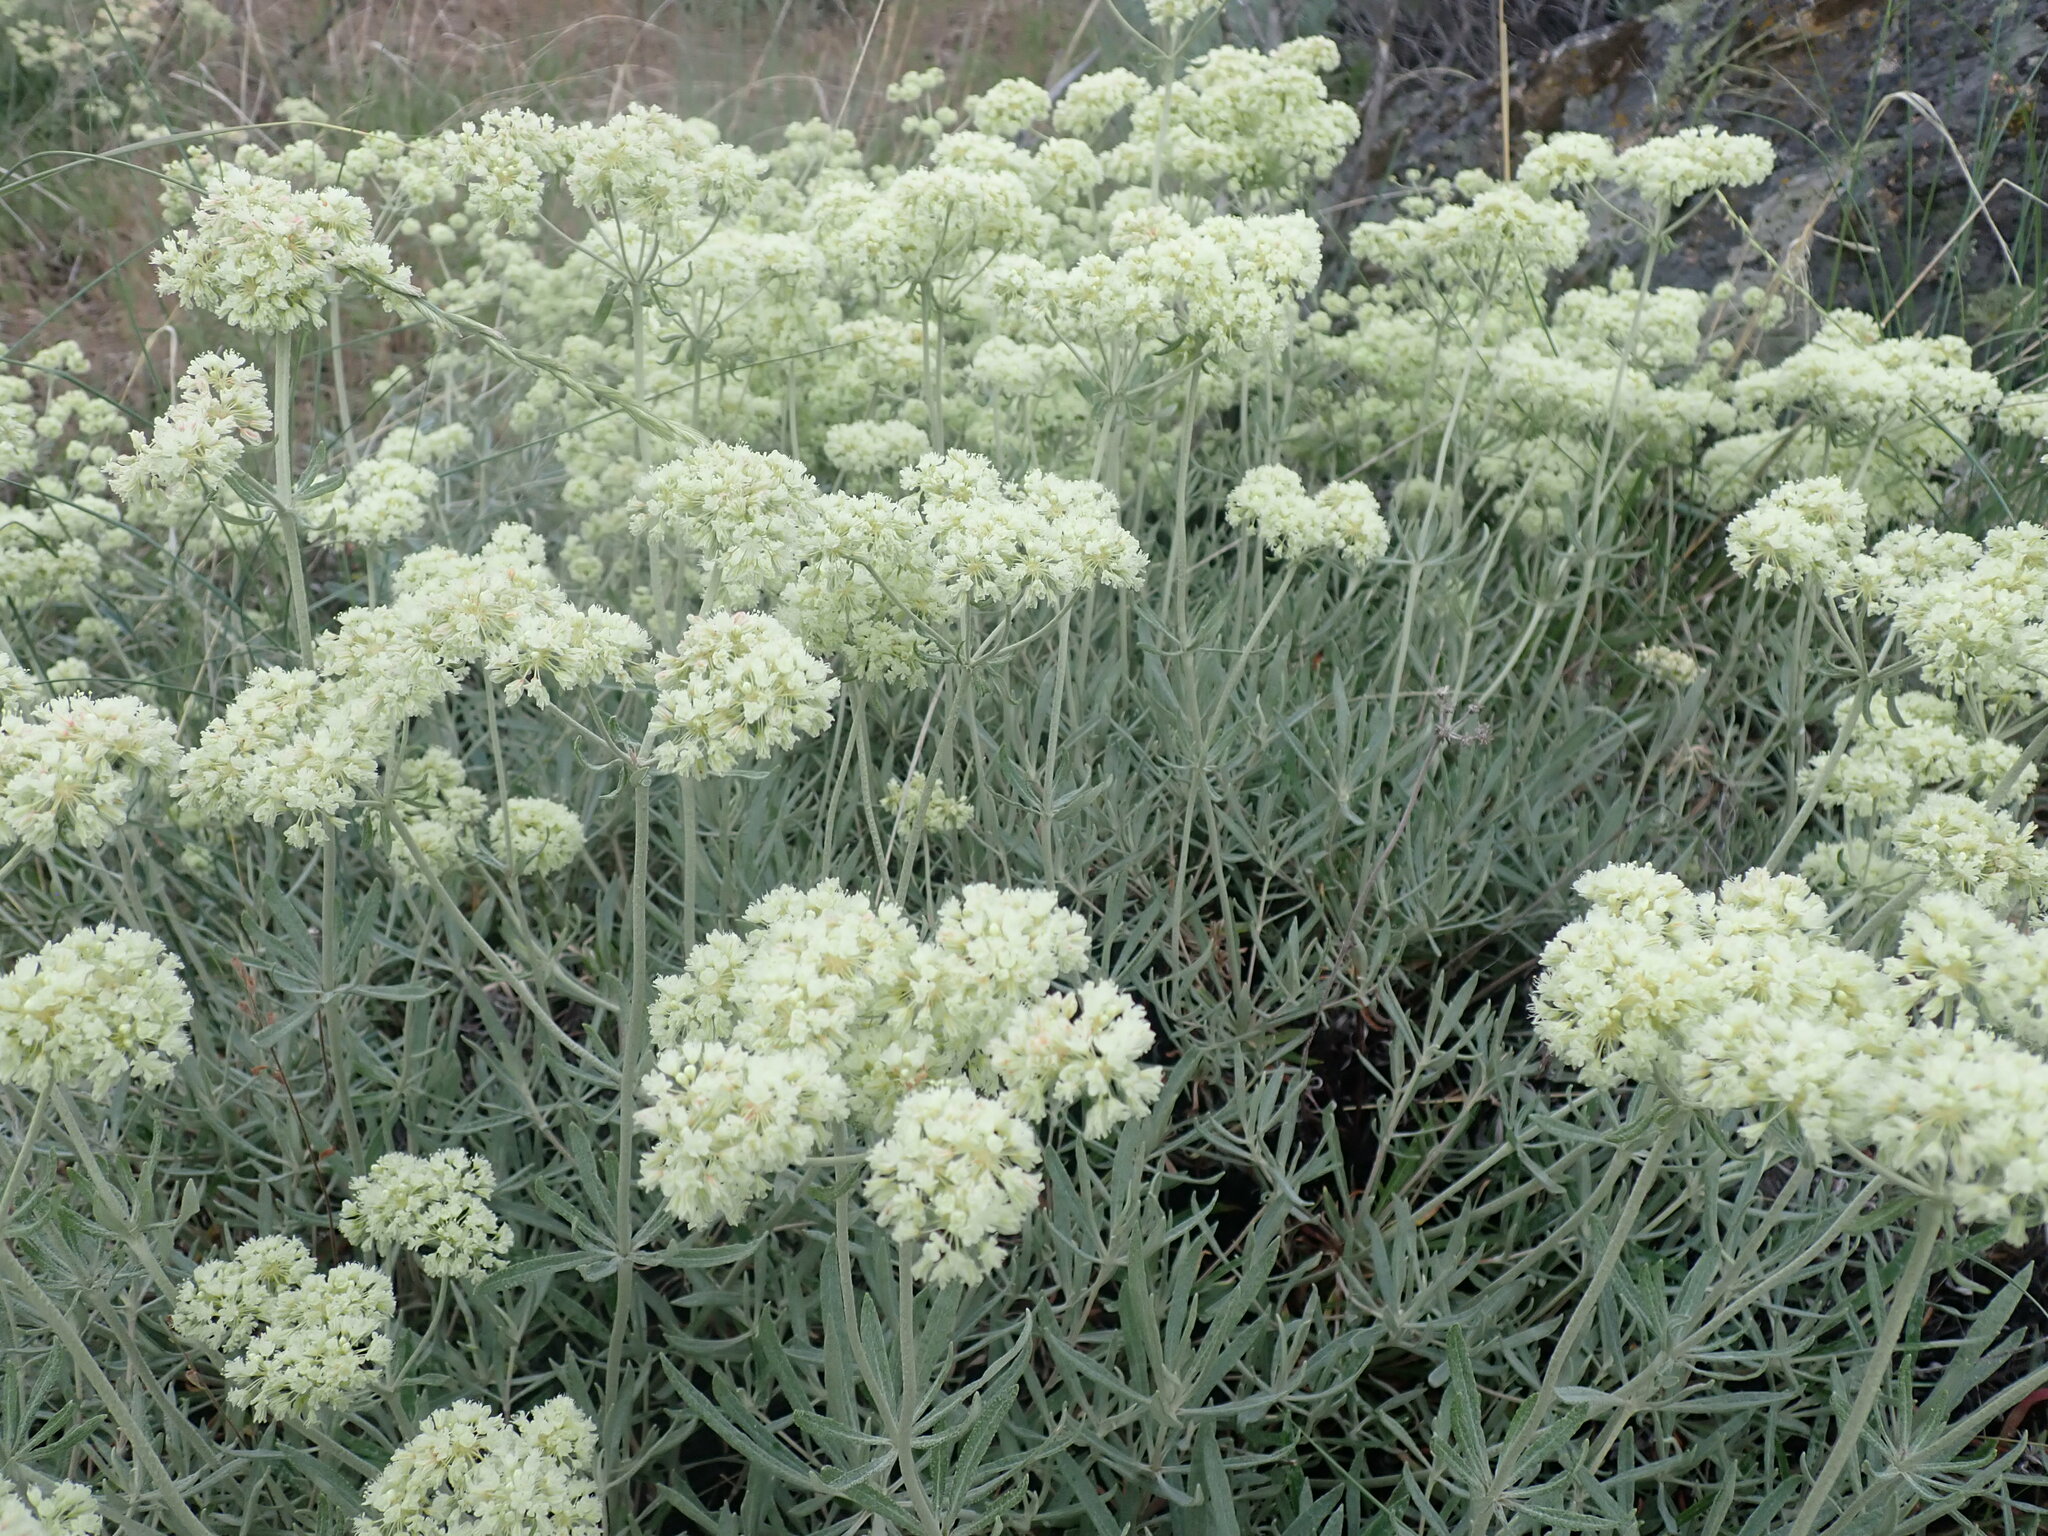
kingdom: Plantae
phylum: Tracheophyta
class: Magnoliopsida
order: Caryophyllales
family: Polygonaceae
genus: Eriogonum
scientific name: Eriogonum heracleoides
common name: Wyeth's buckwheat
